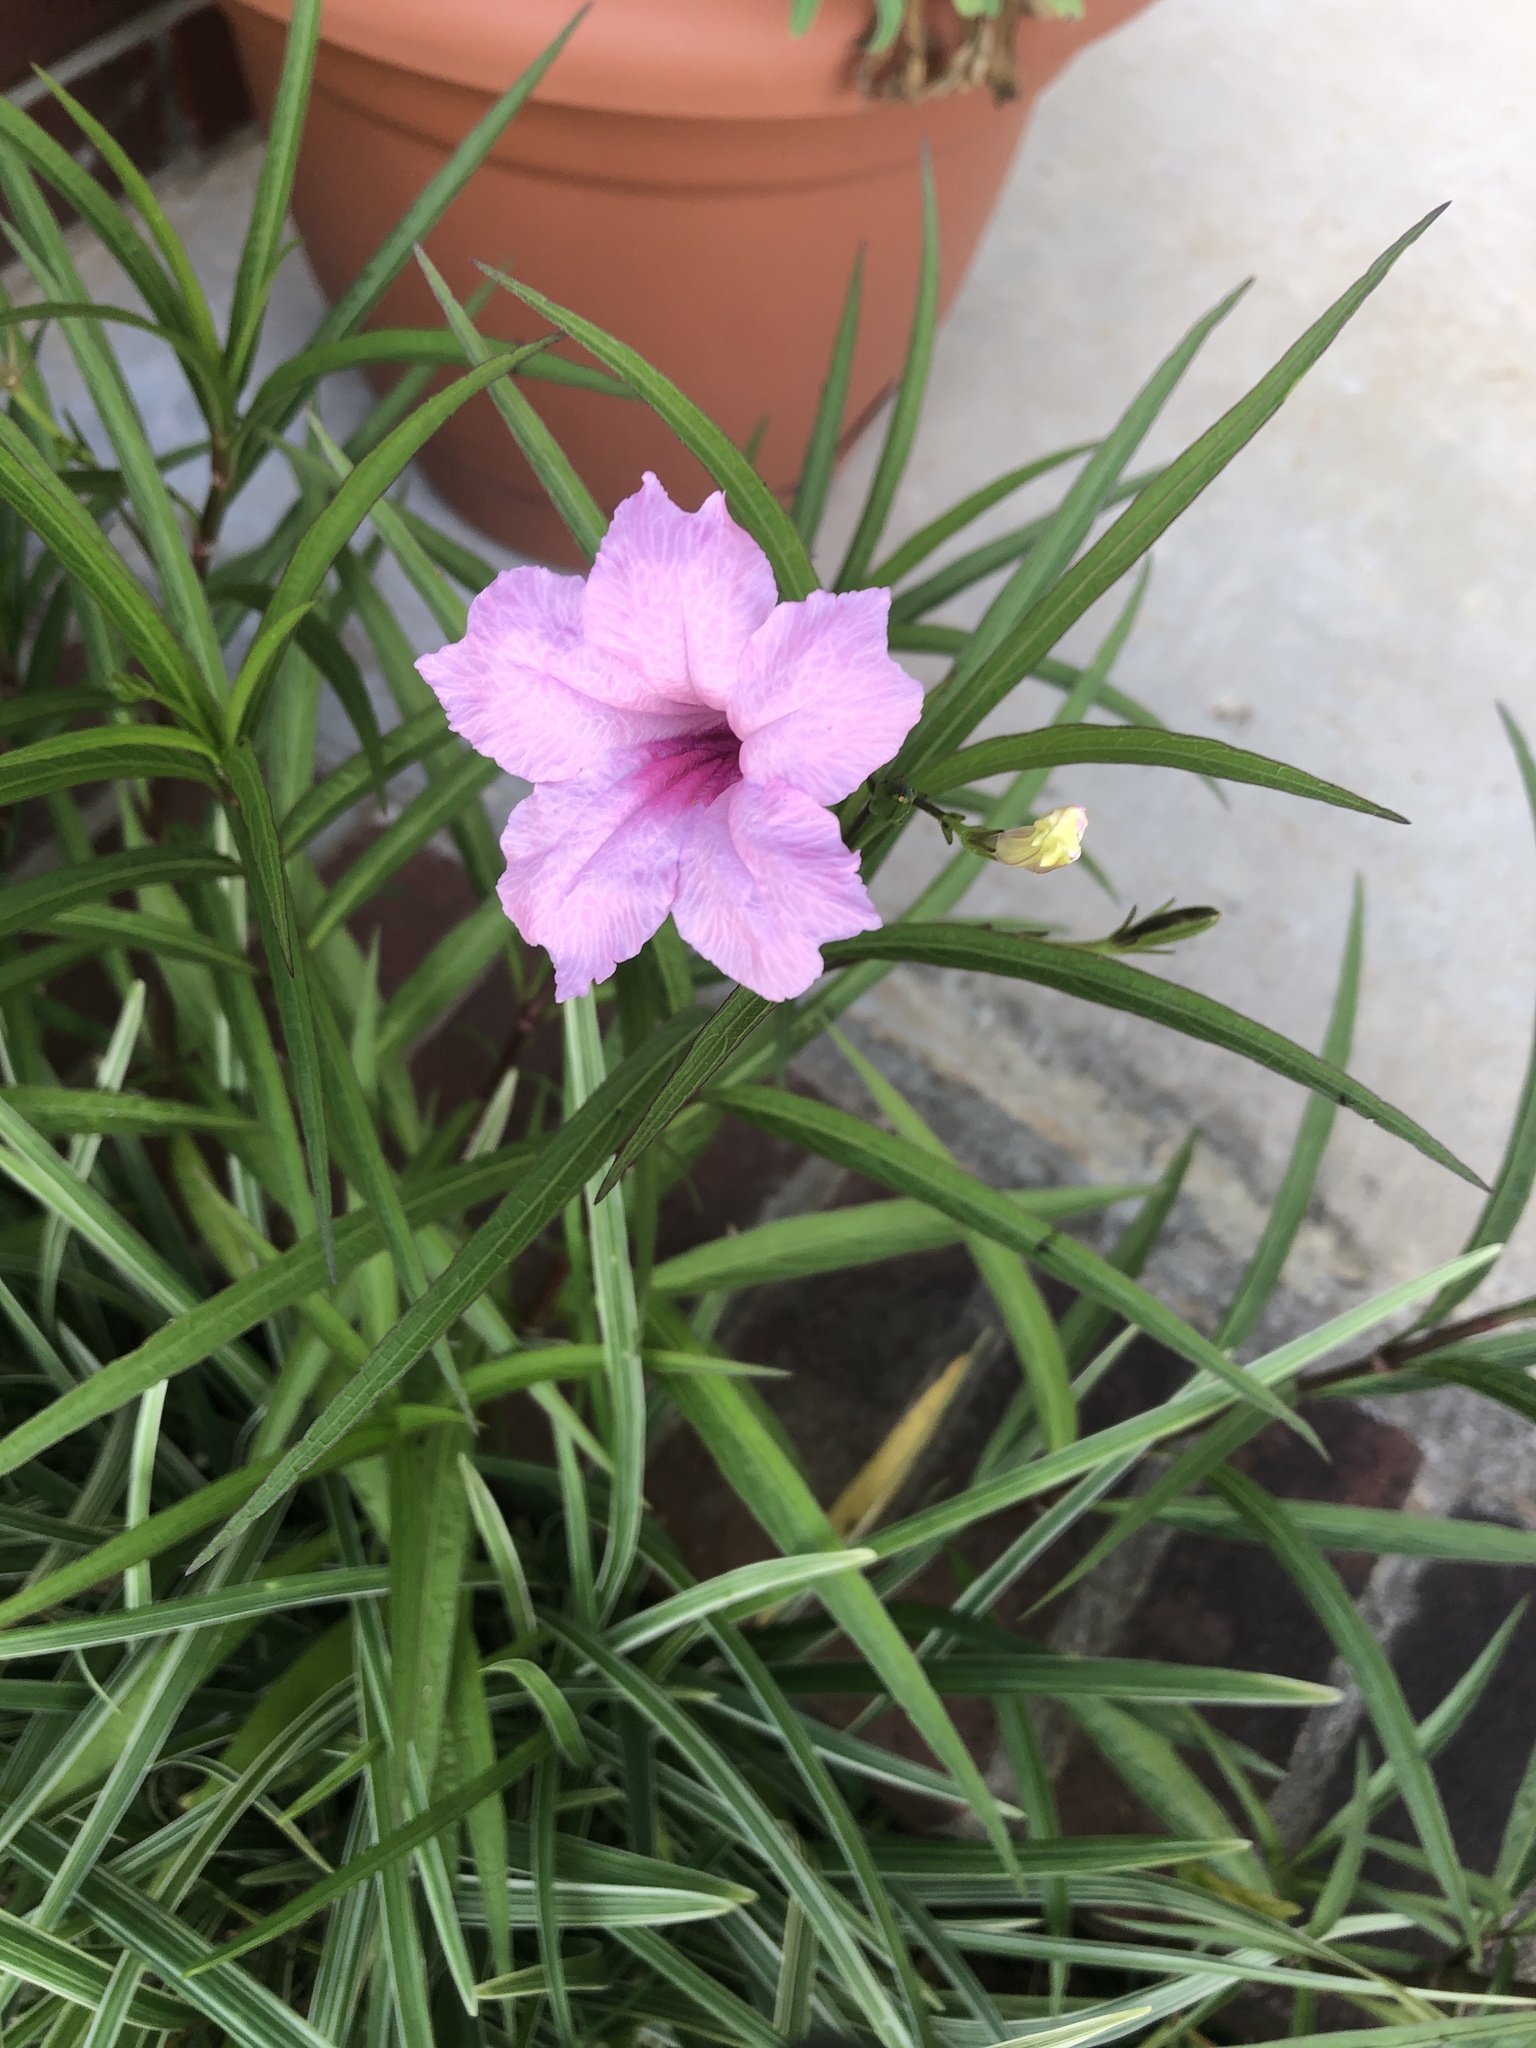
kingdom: Plantae
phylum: Tracheophyta
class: Magnoliopsida
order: Lamiales
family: Acanthaceae
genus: Ruellia
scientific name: Ruellia simplex
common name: Softseed wild petunia
